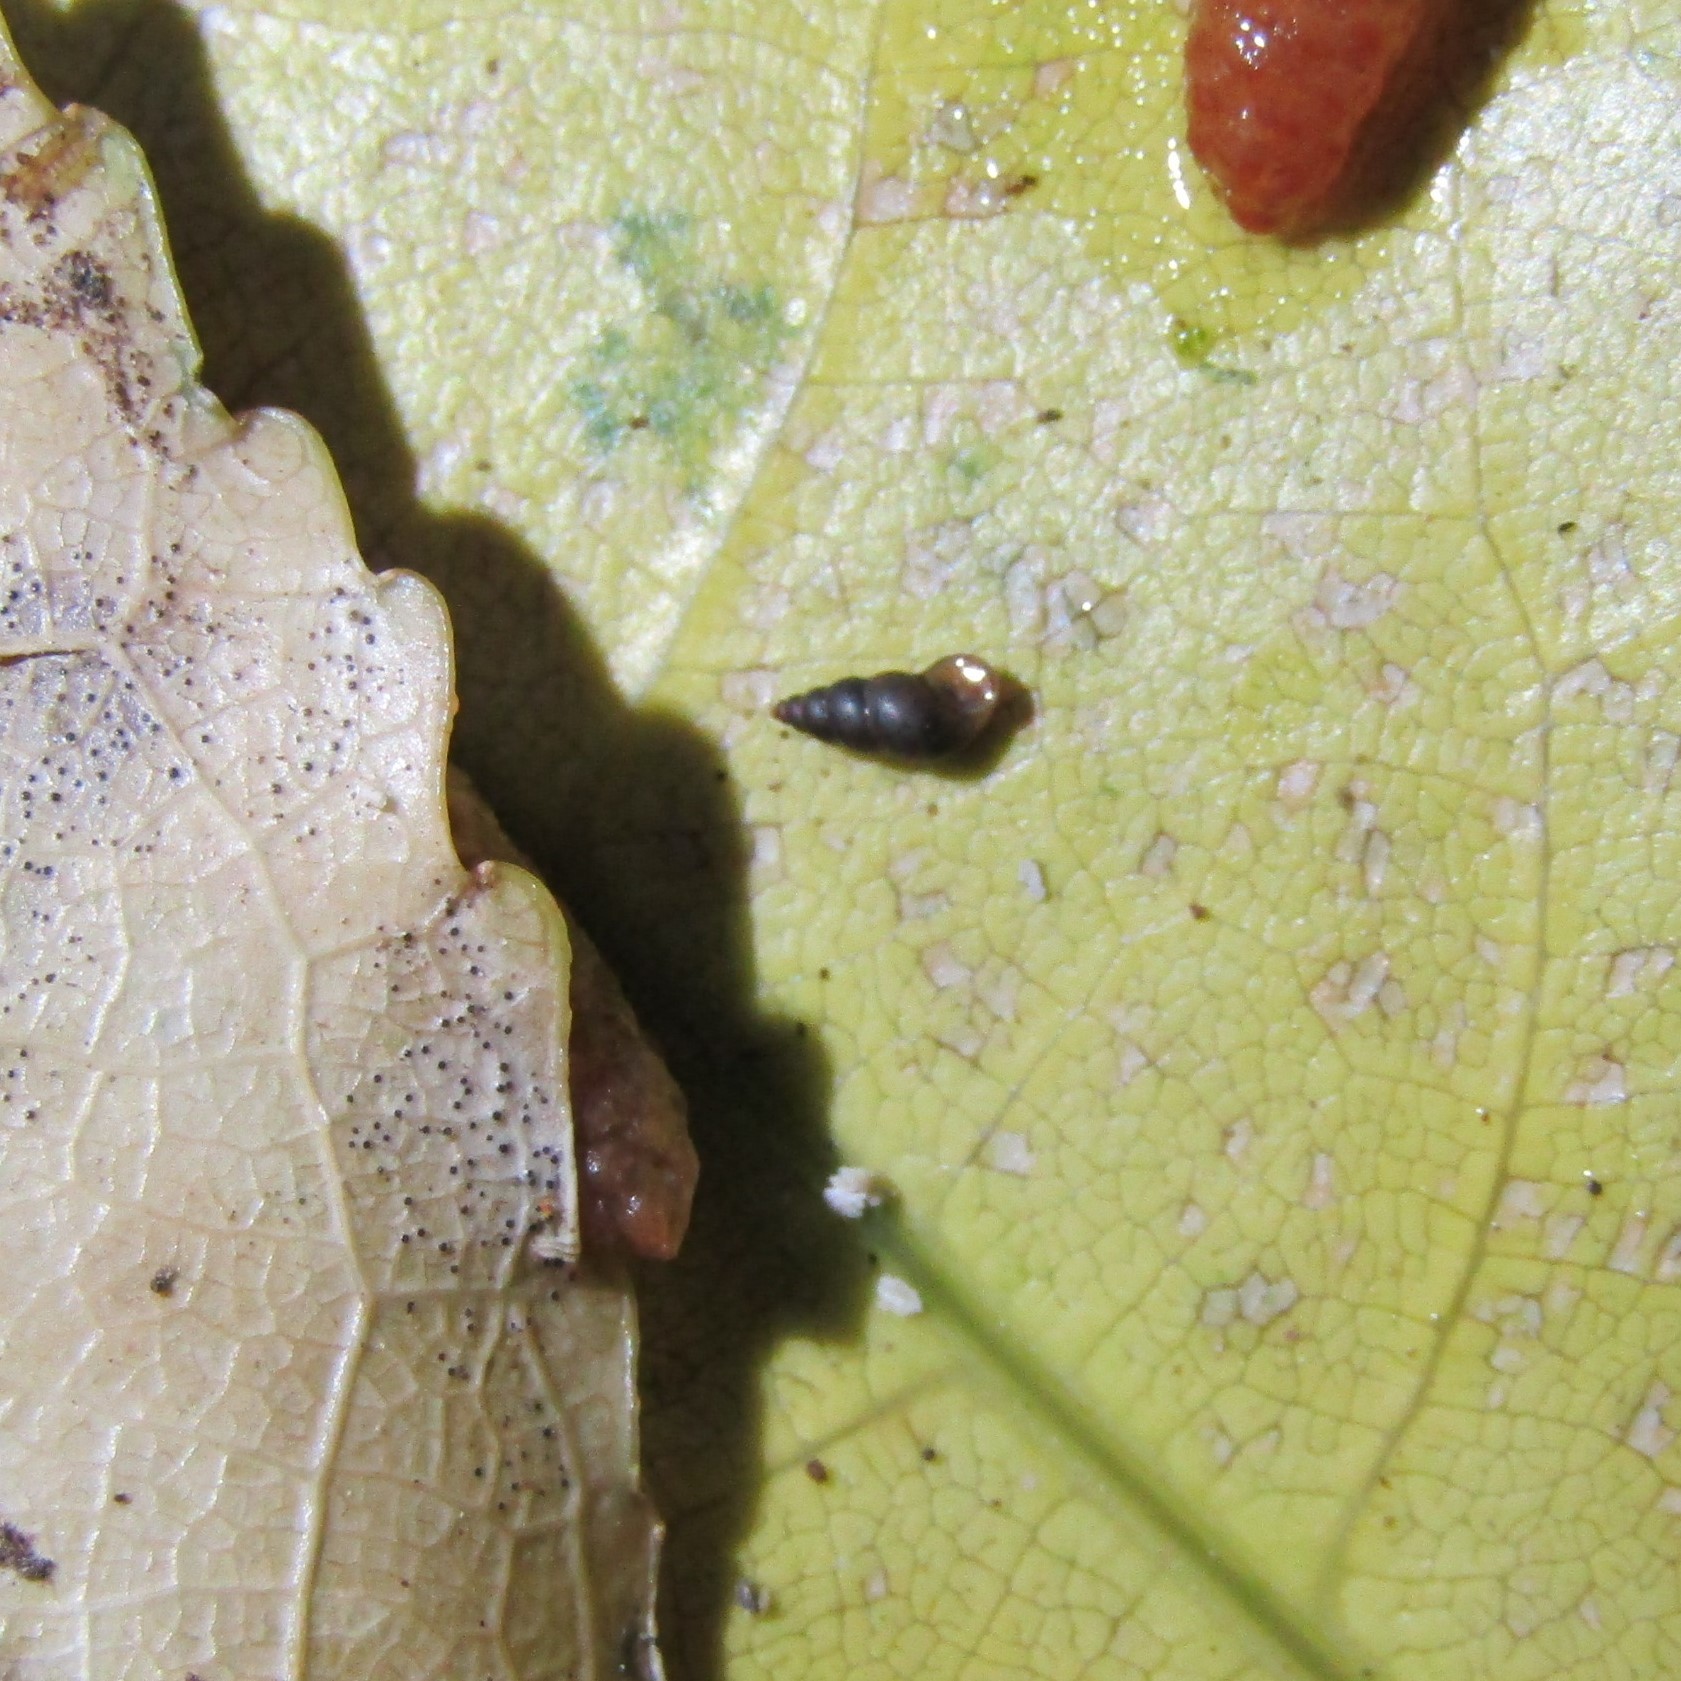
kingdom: Animalia
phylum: Mollusca
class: Gastropoda
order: Littorinimorpha
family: Tateidae
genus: Potamopyrgus
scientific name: Potamopyrgus oppidanus
